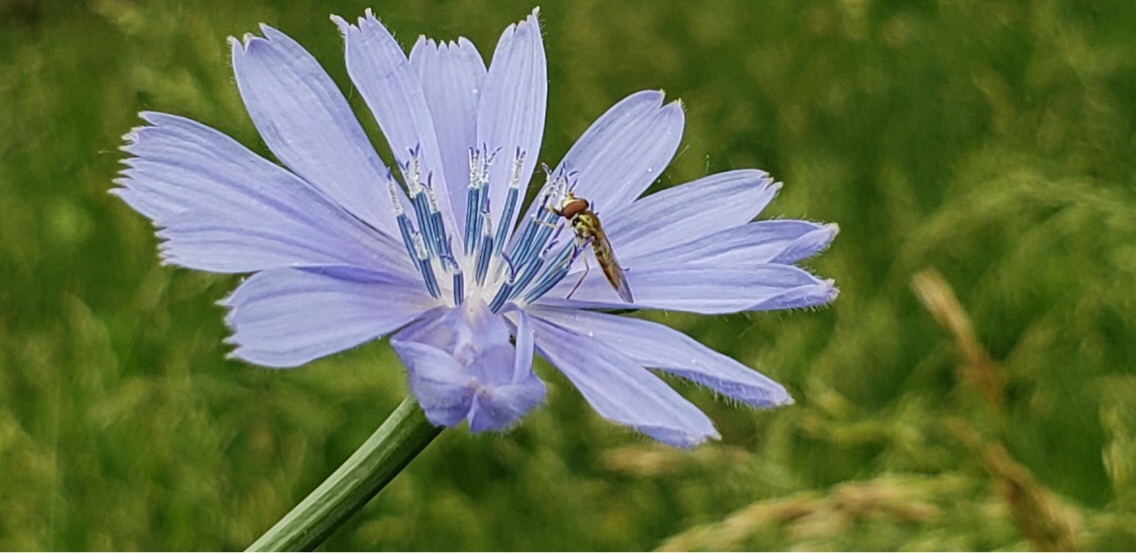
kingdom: Animalia
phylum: Arthropoda
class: Insecta
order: Diptera
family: Syrphidae
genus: Toxomerus
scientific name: Toxomerus marginatus
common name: Syrphid fly
